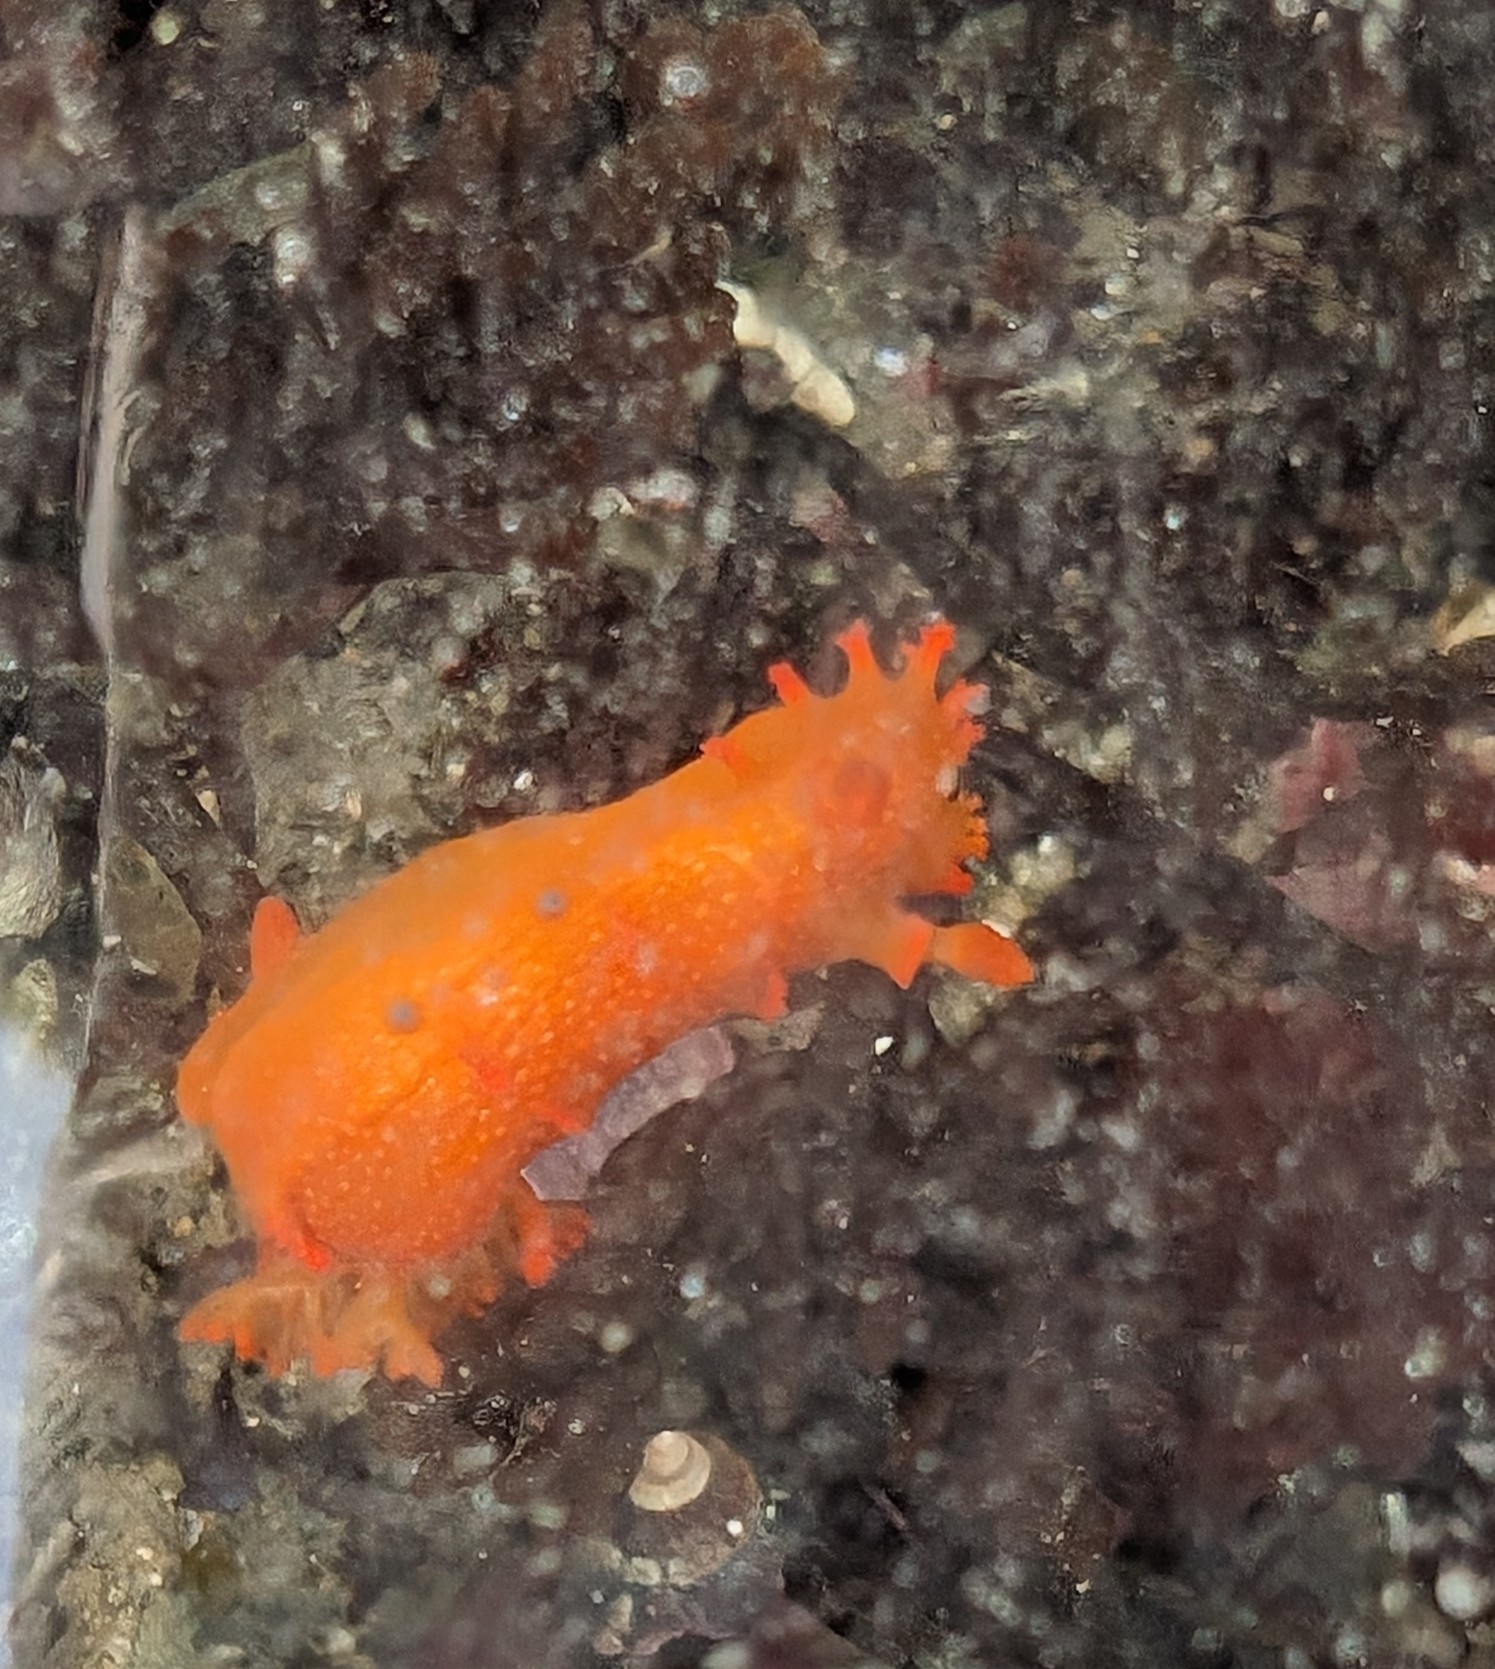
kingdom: Animalia
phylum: Mollusca
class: Gastropoda
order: Nudibranchia
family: Polyceridae
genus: Triopha
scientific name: Triopha maculata
